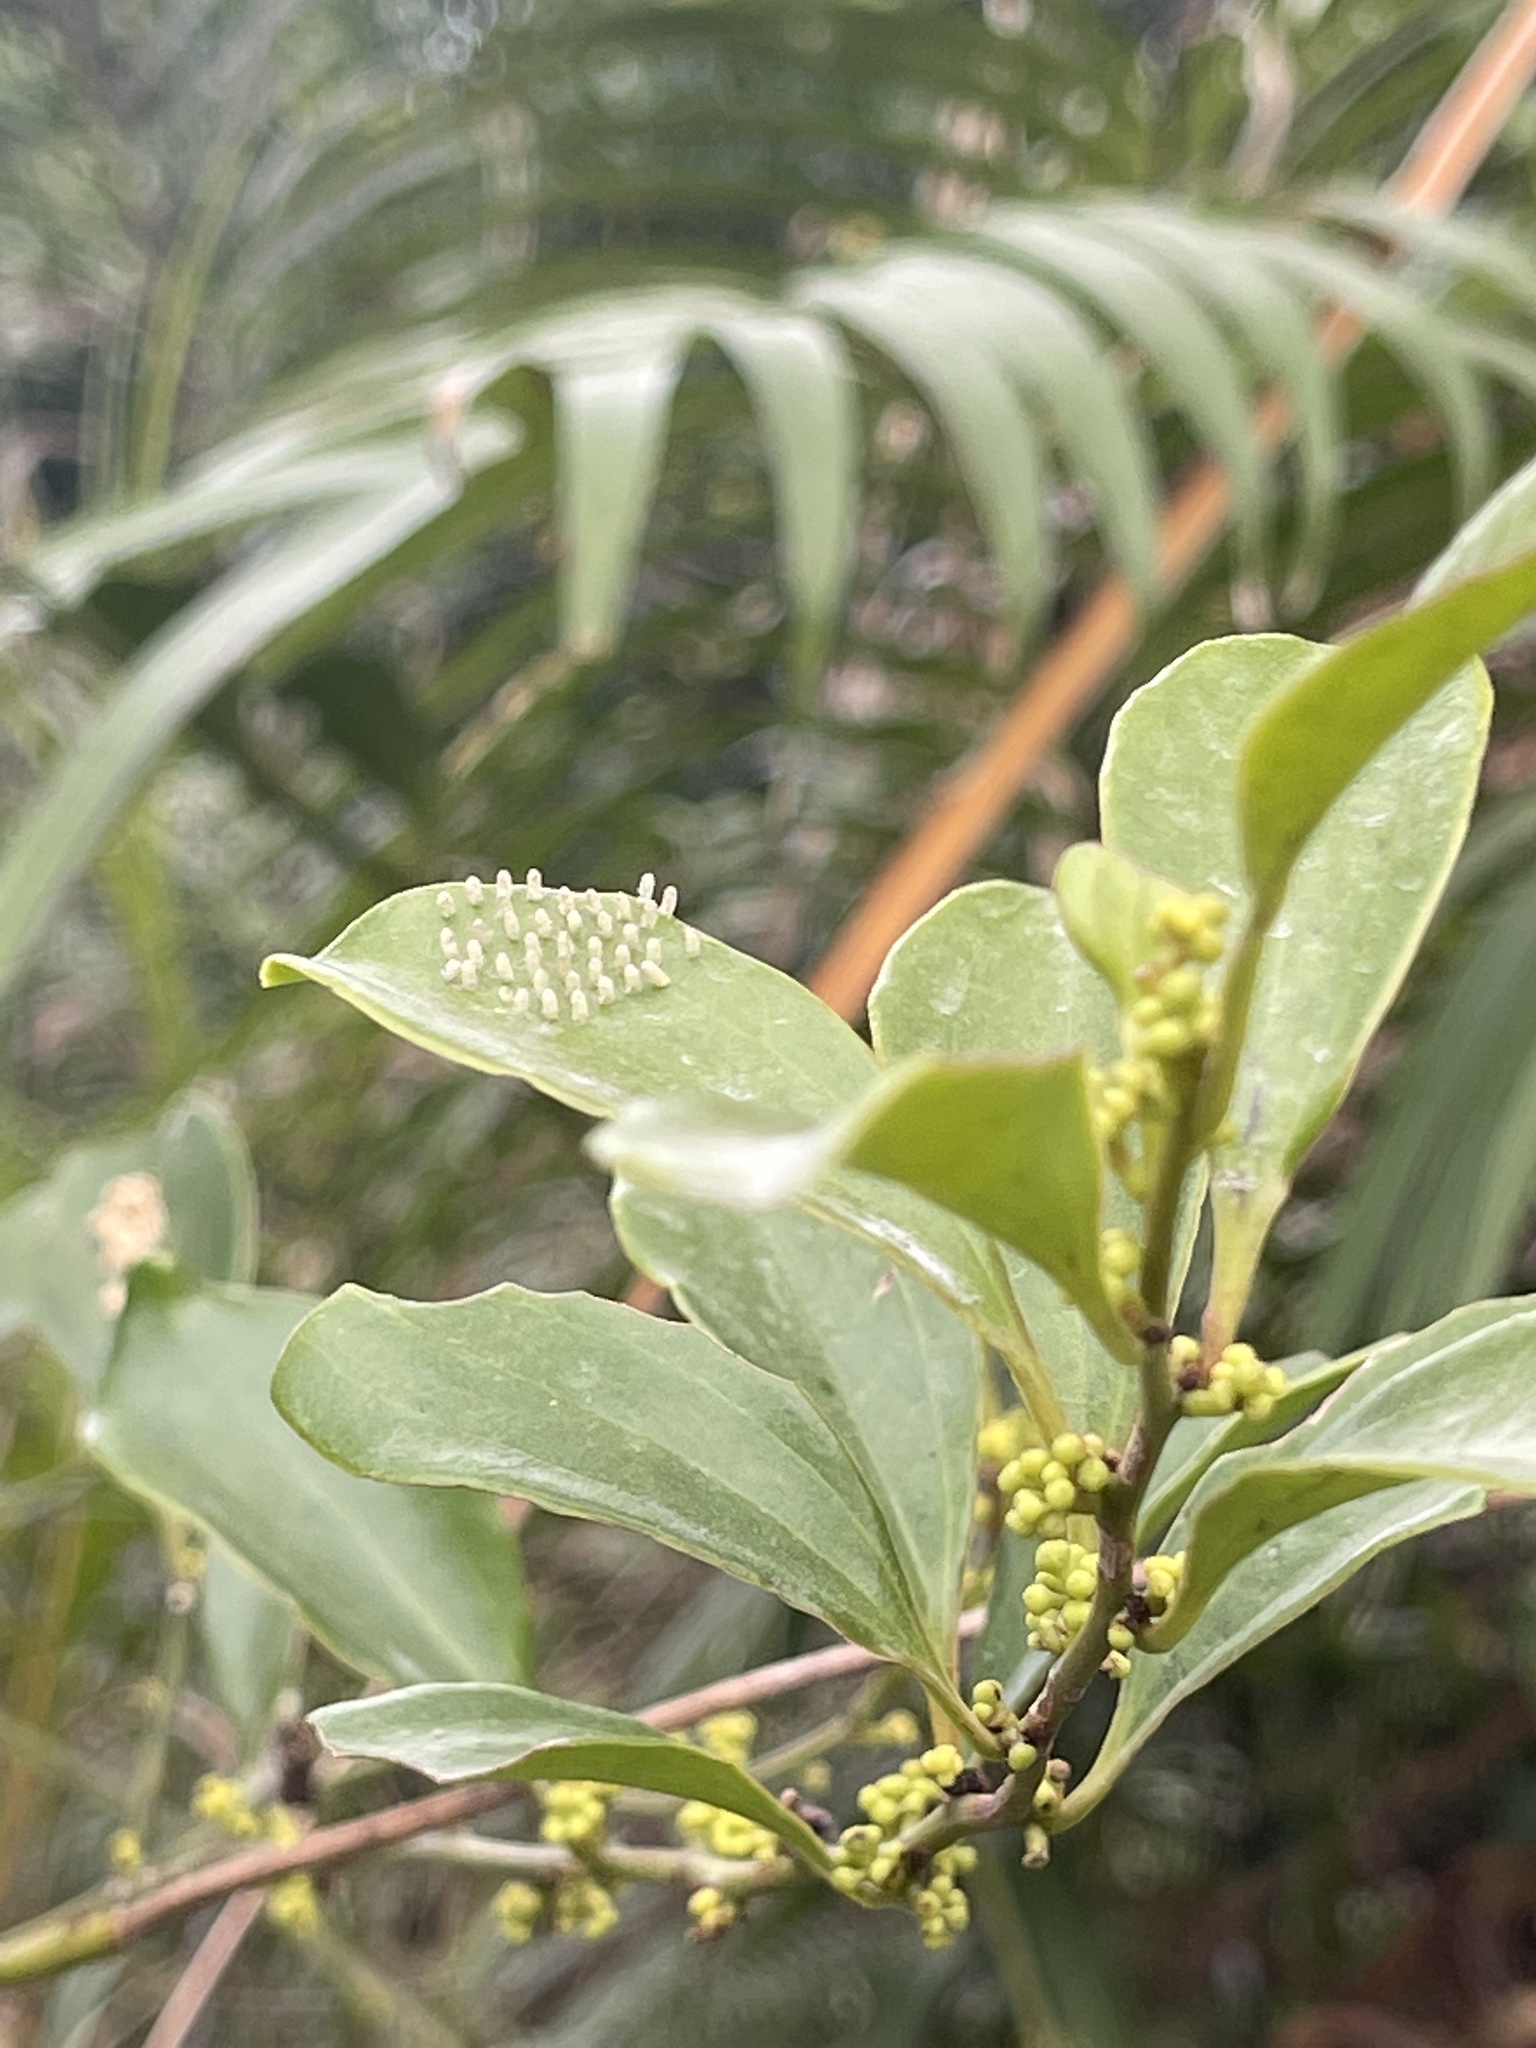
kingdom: Animalia
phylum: Arthropoda
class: Insecta
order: Lepidoptera
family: Pieridae
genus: Delias
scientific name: Delias pasithoe
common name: Red-base jezebel
